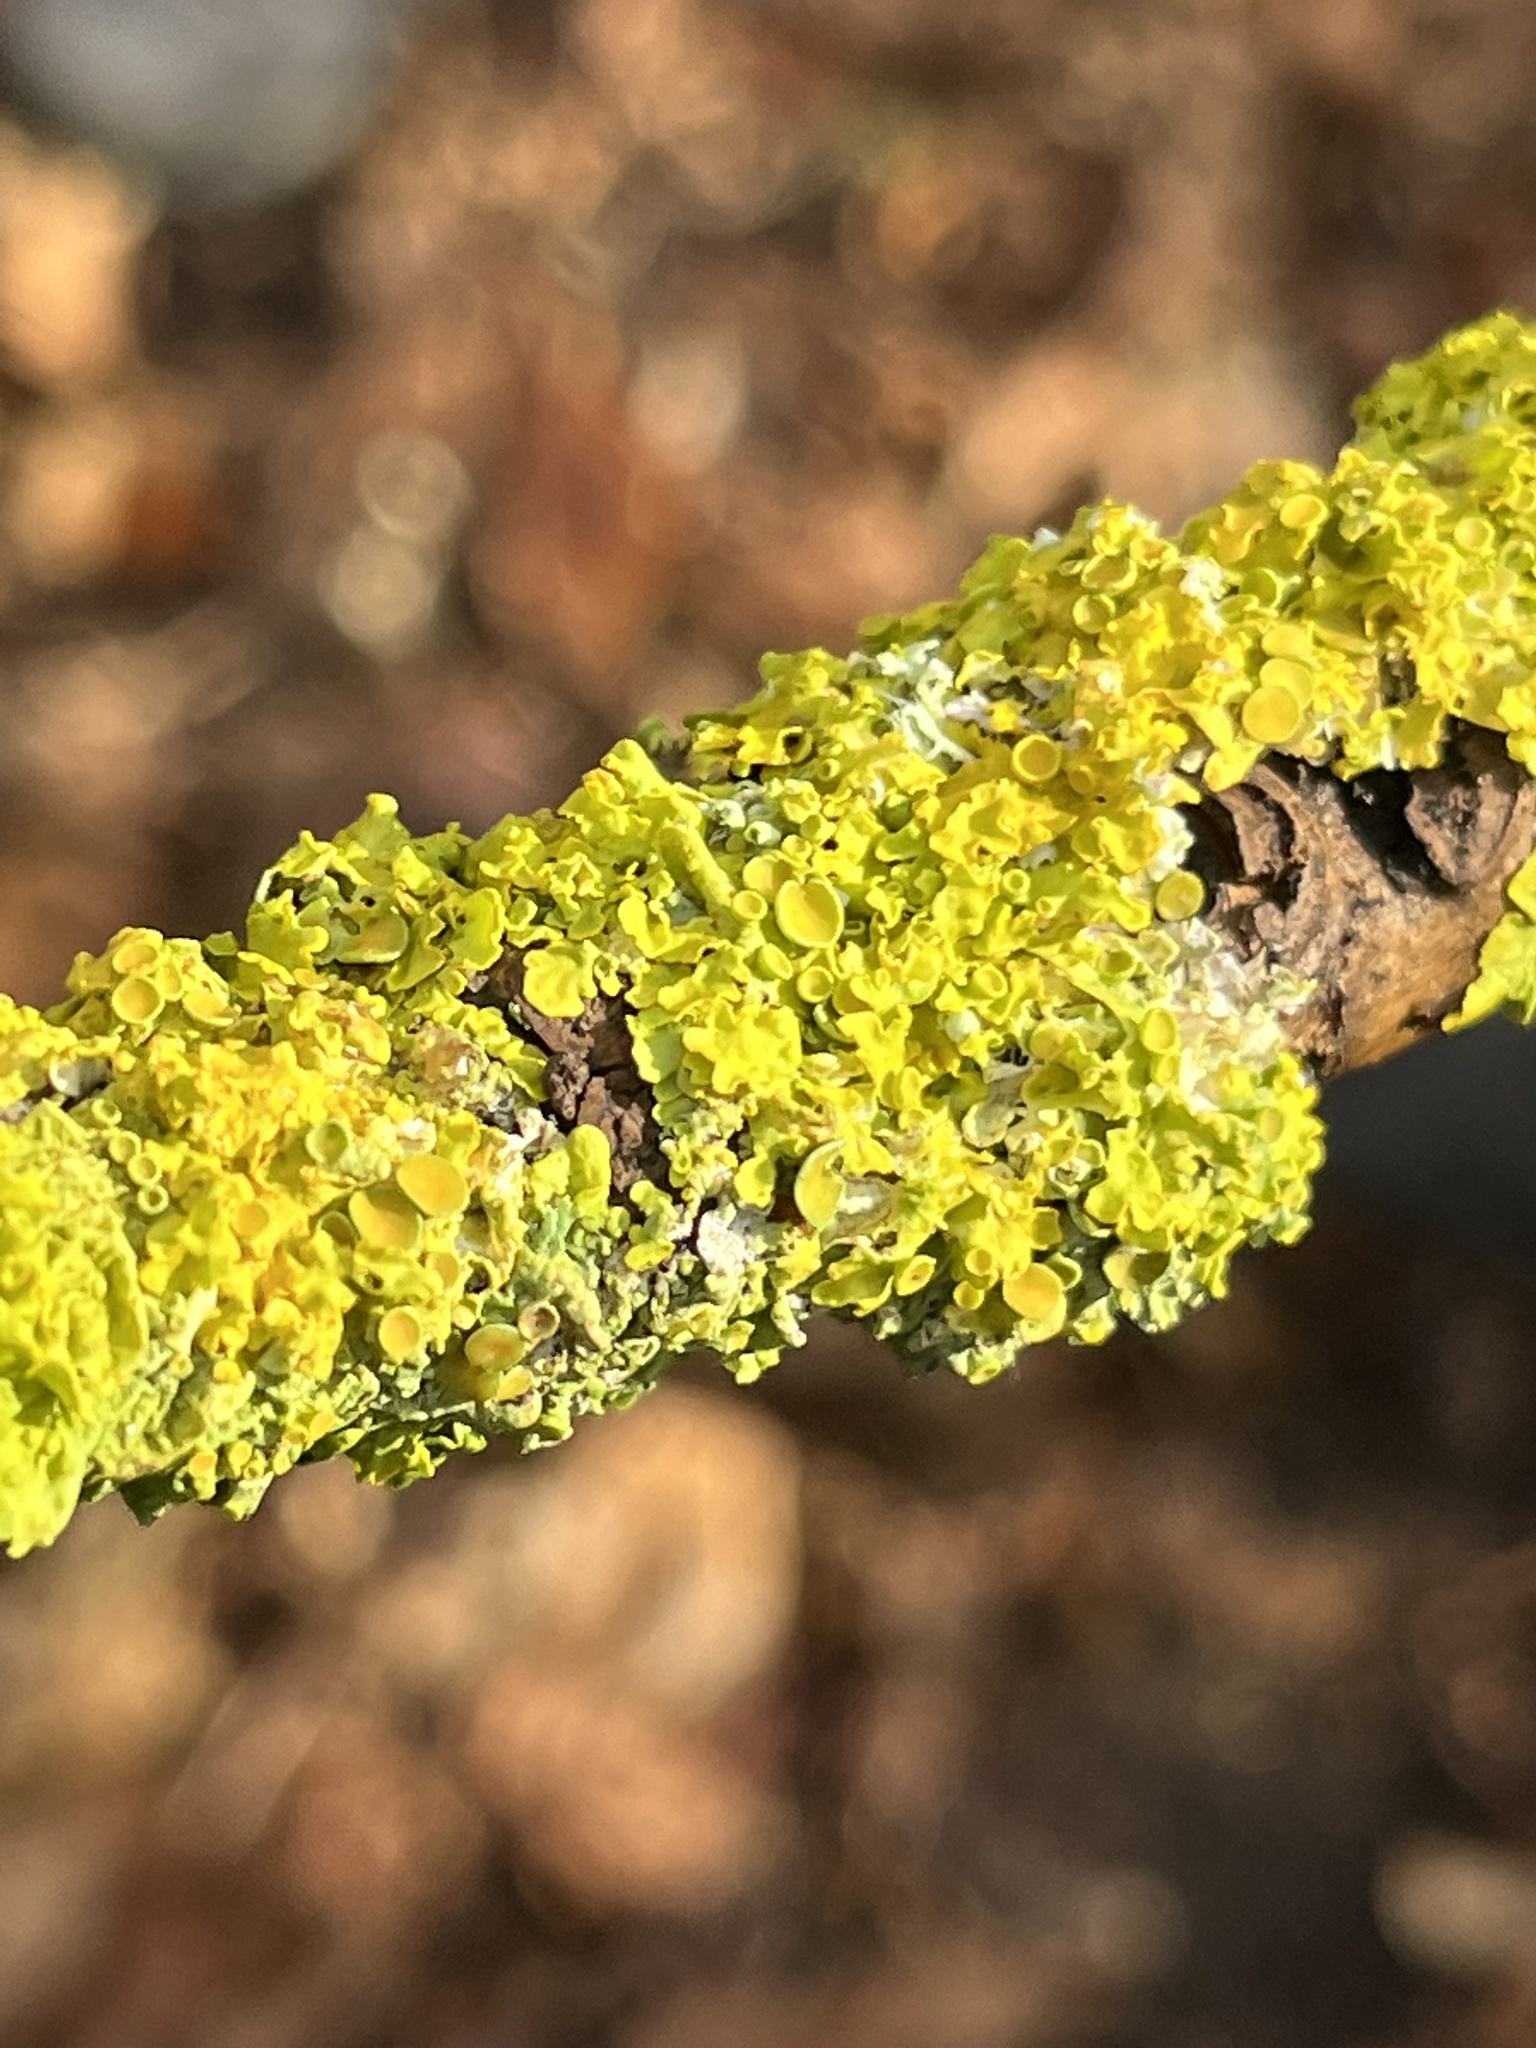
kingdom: Fungi
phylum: Ascomycota
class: Lecanoromycetes
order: Teloschistales
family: Teloschistaceae
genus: Xanthoria
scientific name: Xanthoria parietina
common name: Common orange lichen
